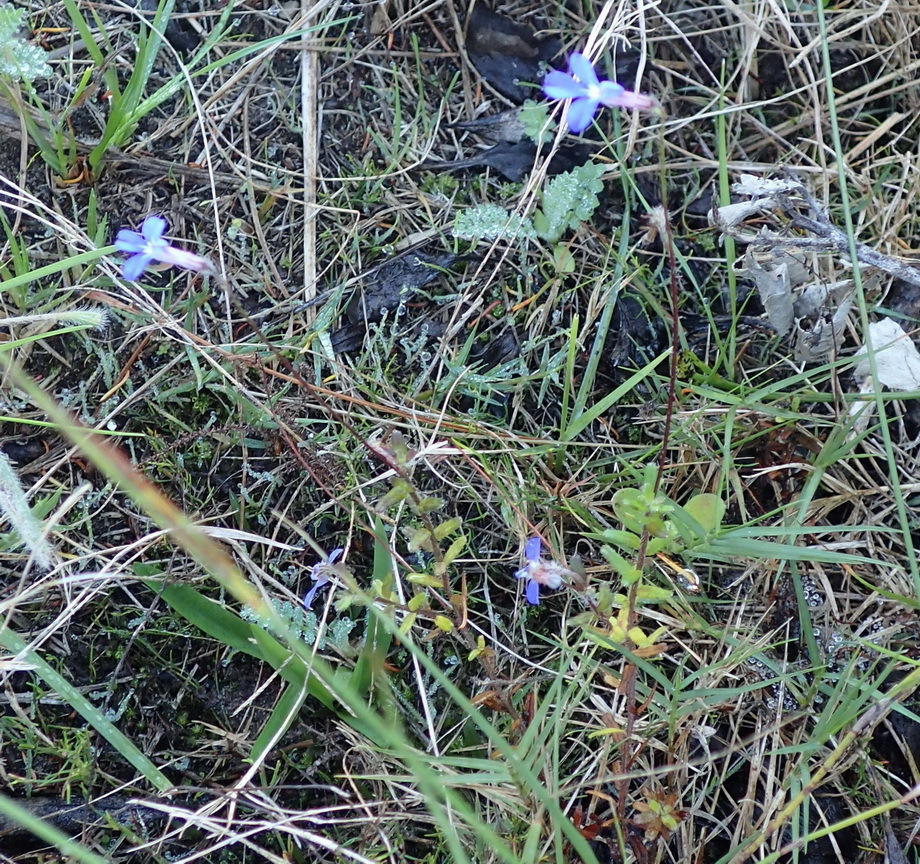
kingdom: Plantae
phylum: Tracheophyta
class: Magnoliopsida
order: Asterales
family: Campanulaceae
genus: Lobelia
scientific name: Lobelia neglecta
